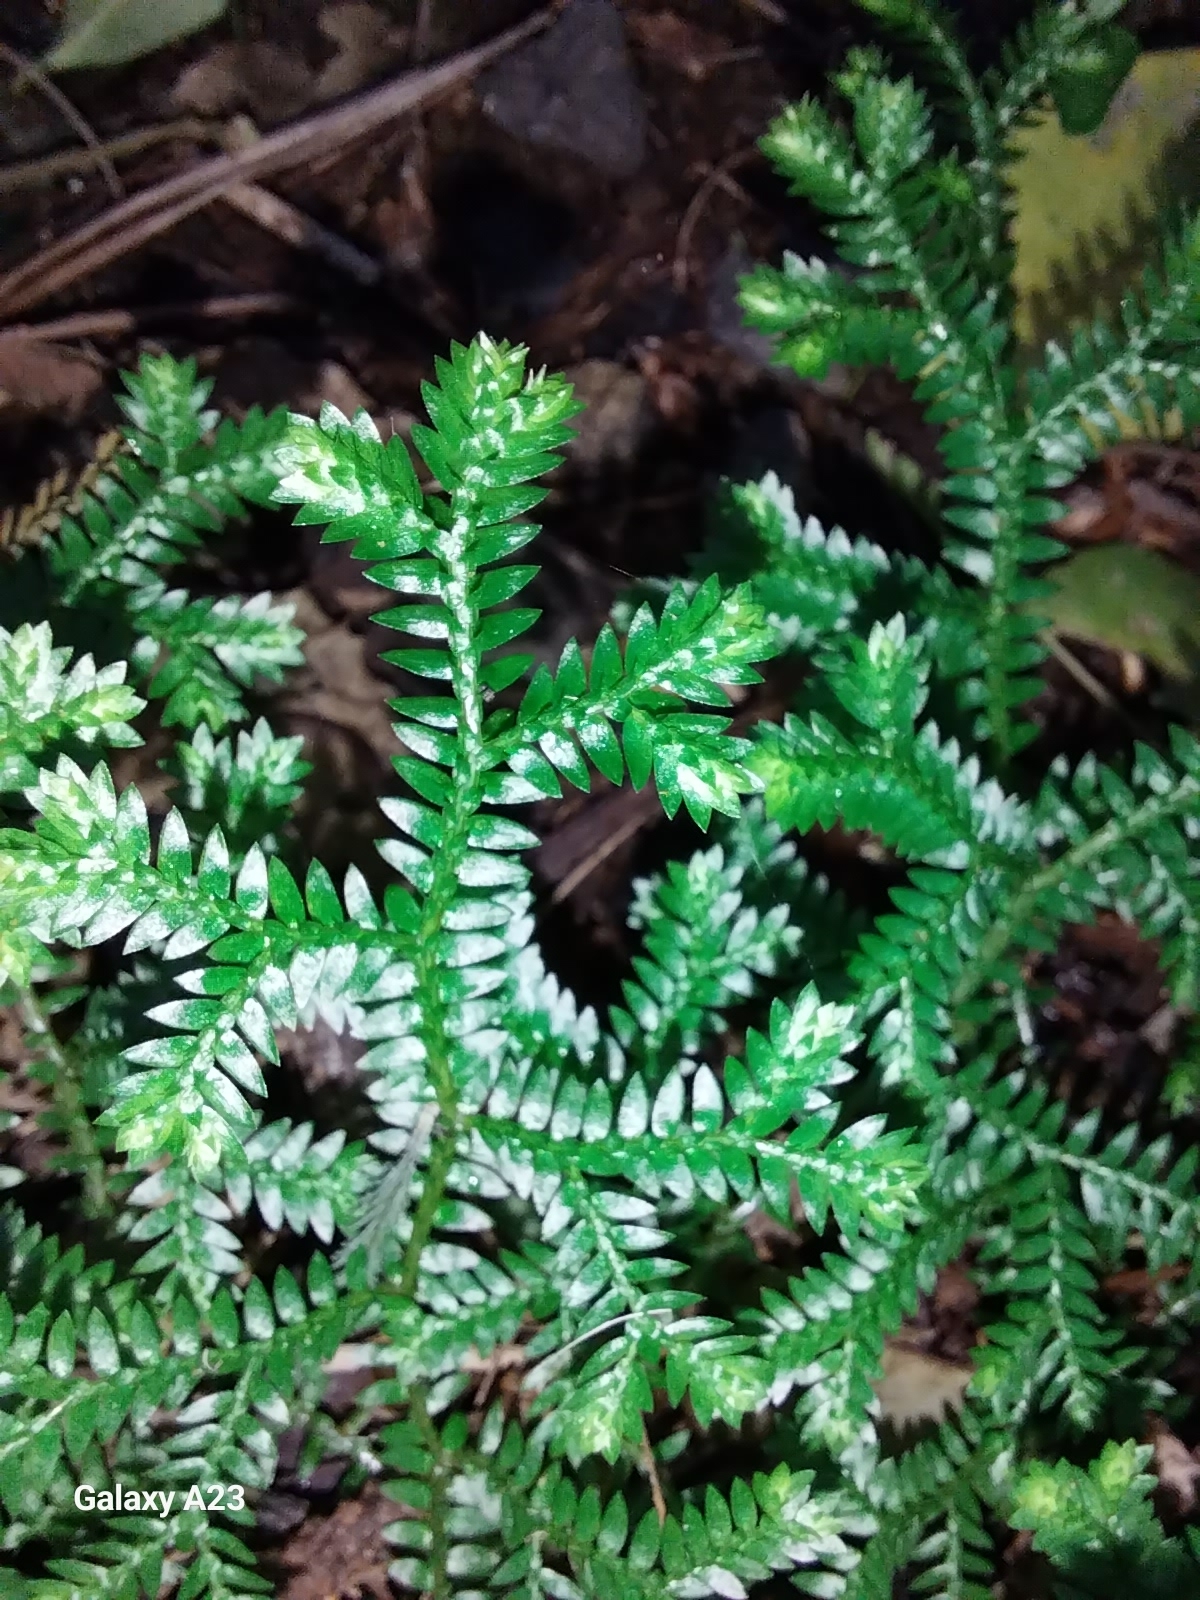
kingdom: Plantae
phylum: Tracheophyta
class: Lycopodiopsida
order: Selaginellales
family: Selaginellaceae
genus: Selaginella
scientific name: Selaginella kraussiana
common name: Krauss' spikemoss
